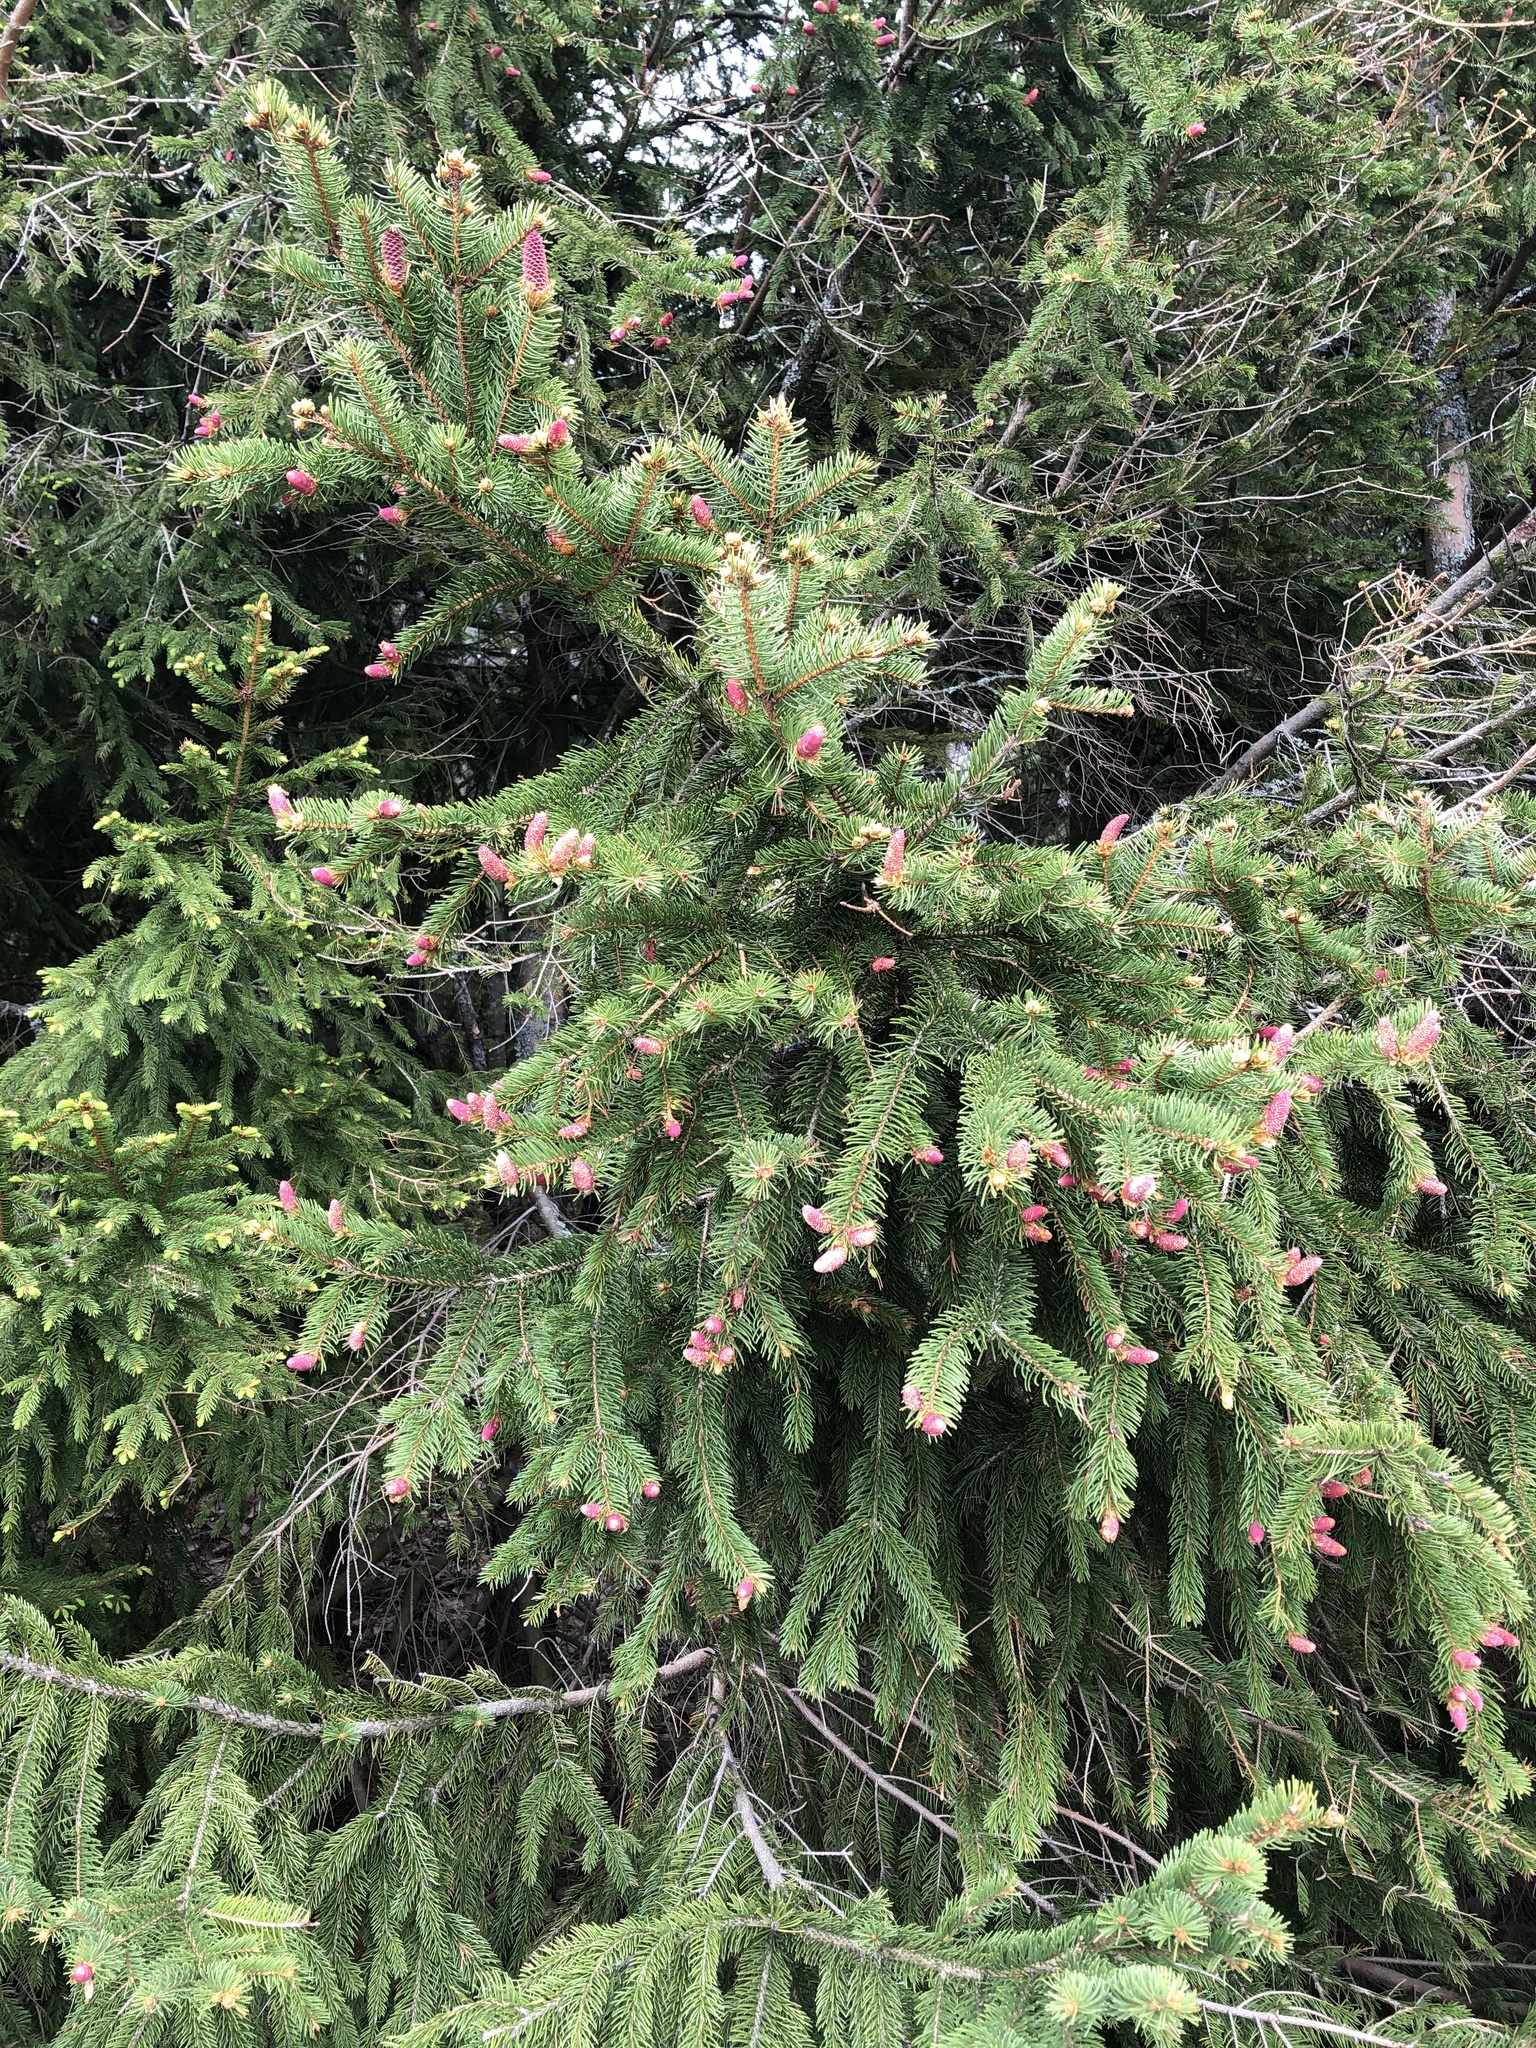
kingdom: Plantae
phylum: Tracheophyta
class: Pinopsida
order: Pinales
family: Pinaceae
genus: Picea
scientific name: Picea abies
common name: Norway spruce
